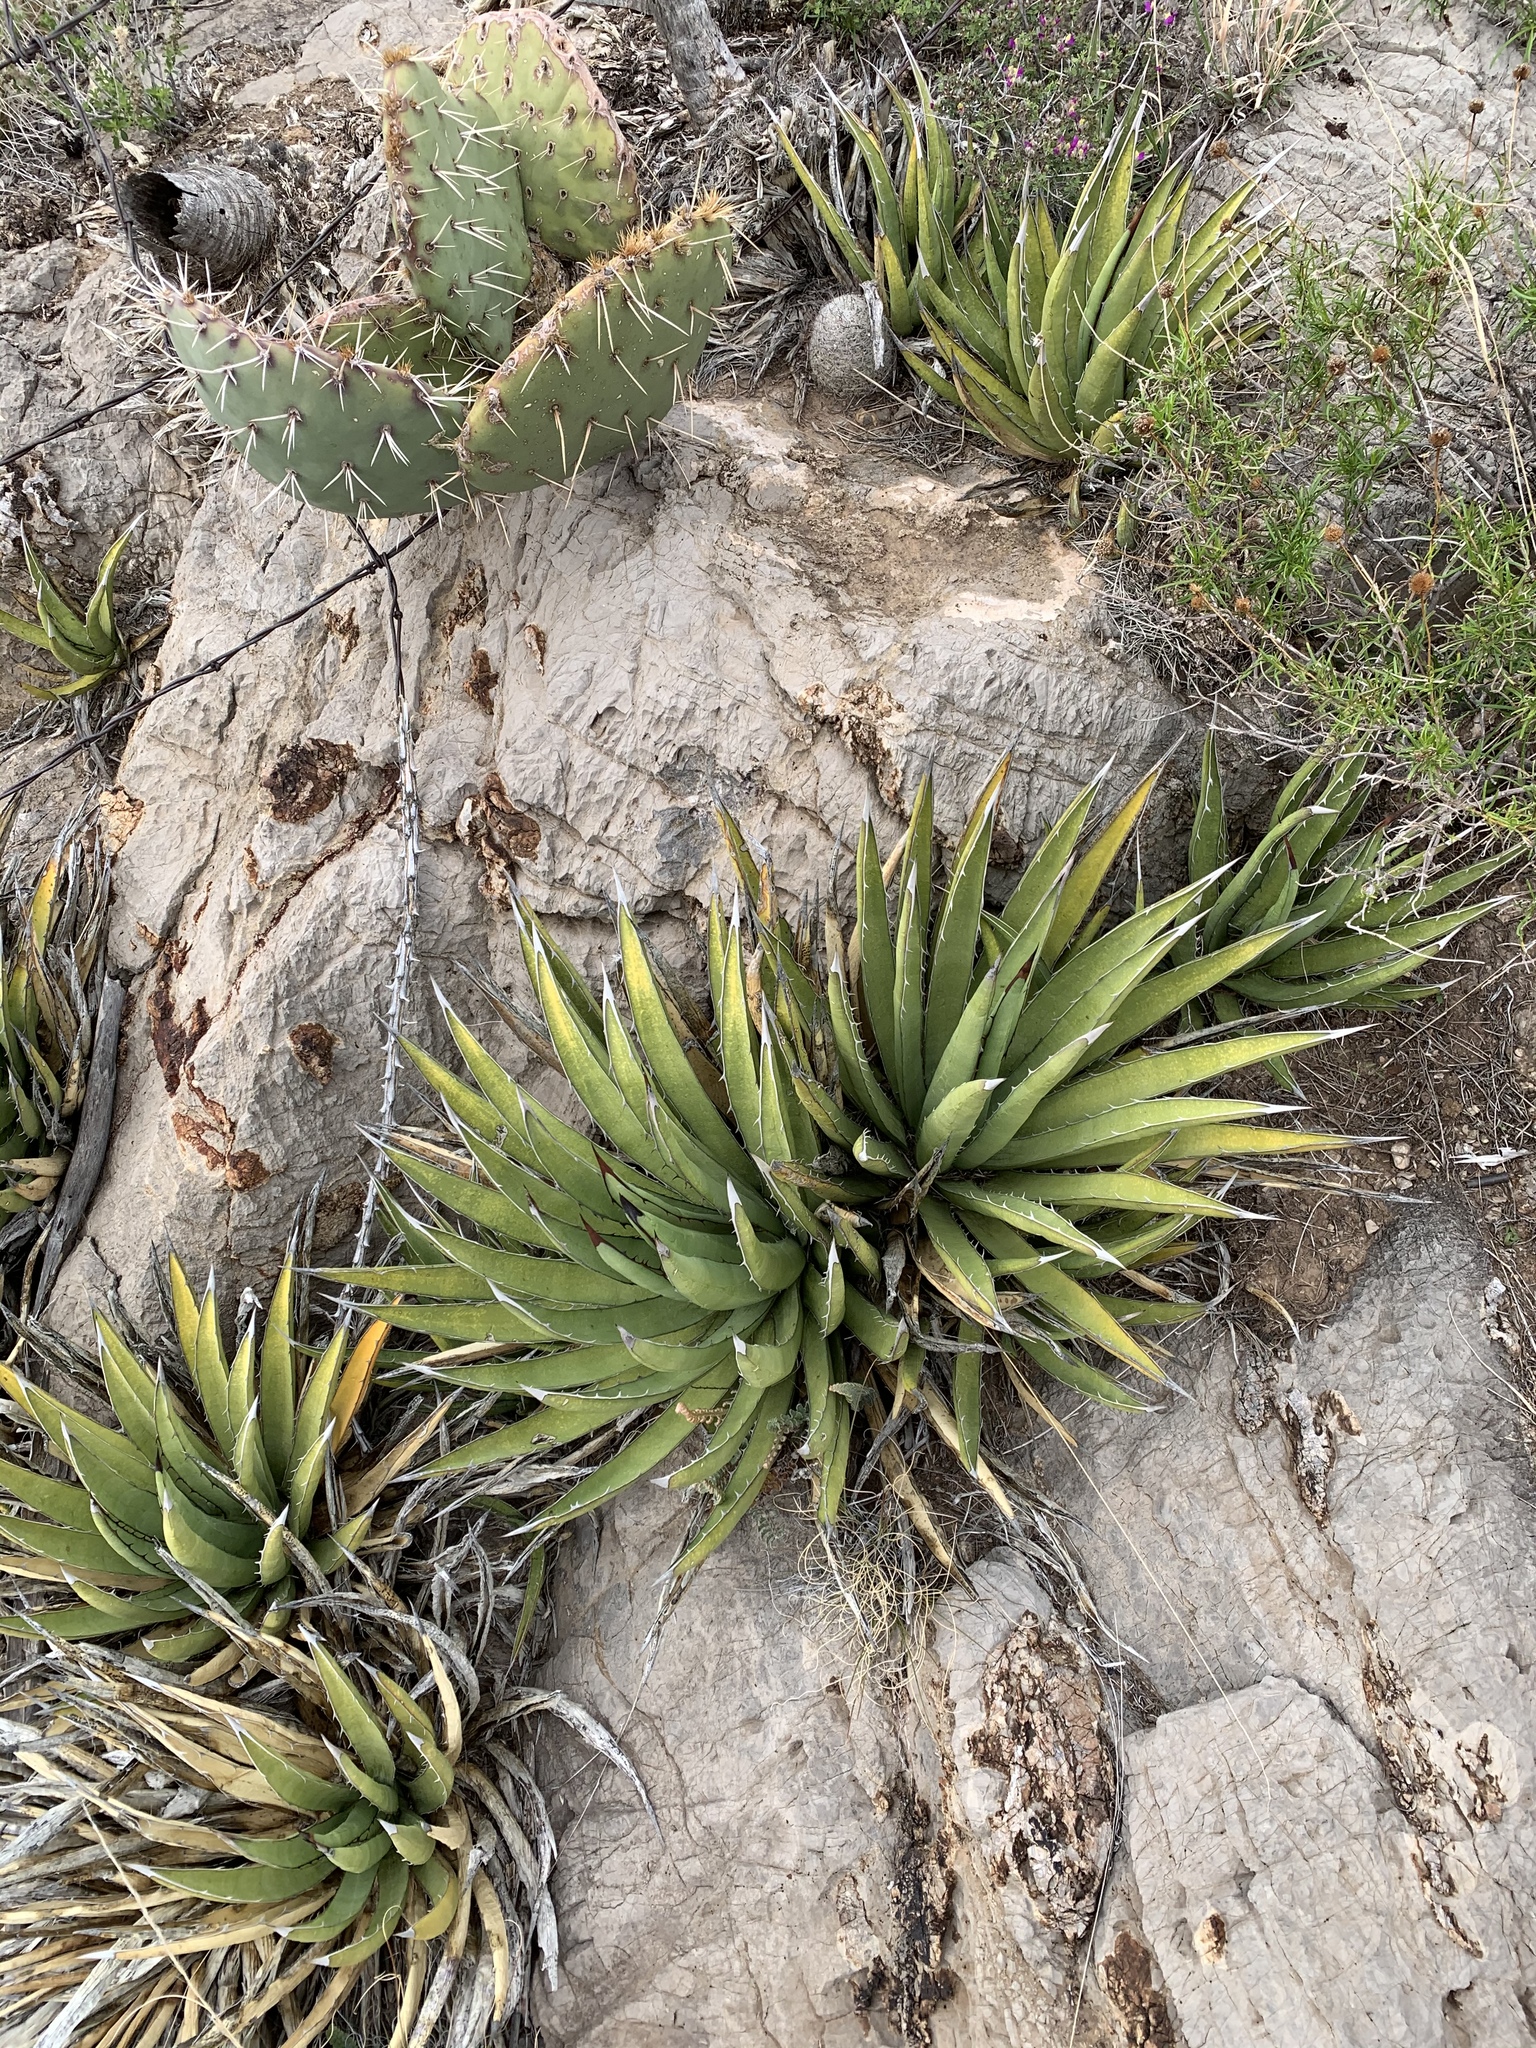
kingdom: Plantae
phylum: Tracheophyta
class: Liliopsida
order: Asparagales
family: Asparagaceae
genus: Agave
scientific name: Agave lechuguilla
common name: Lecheguilla agave
